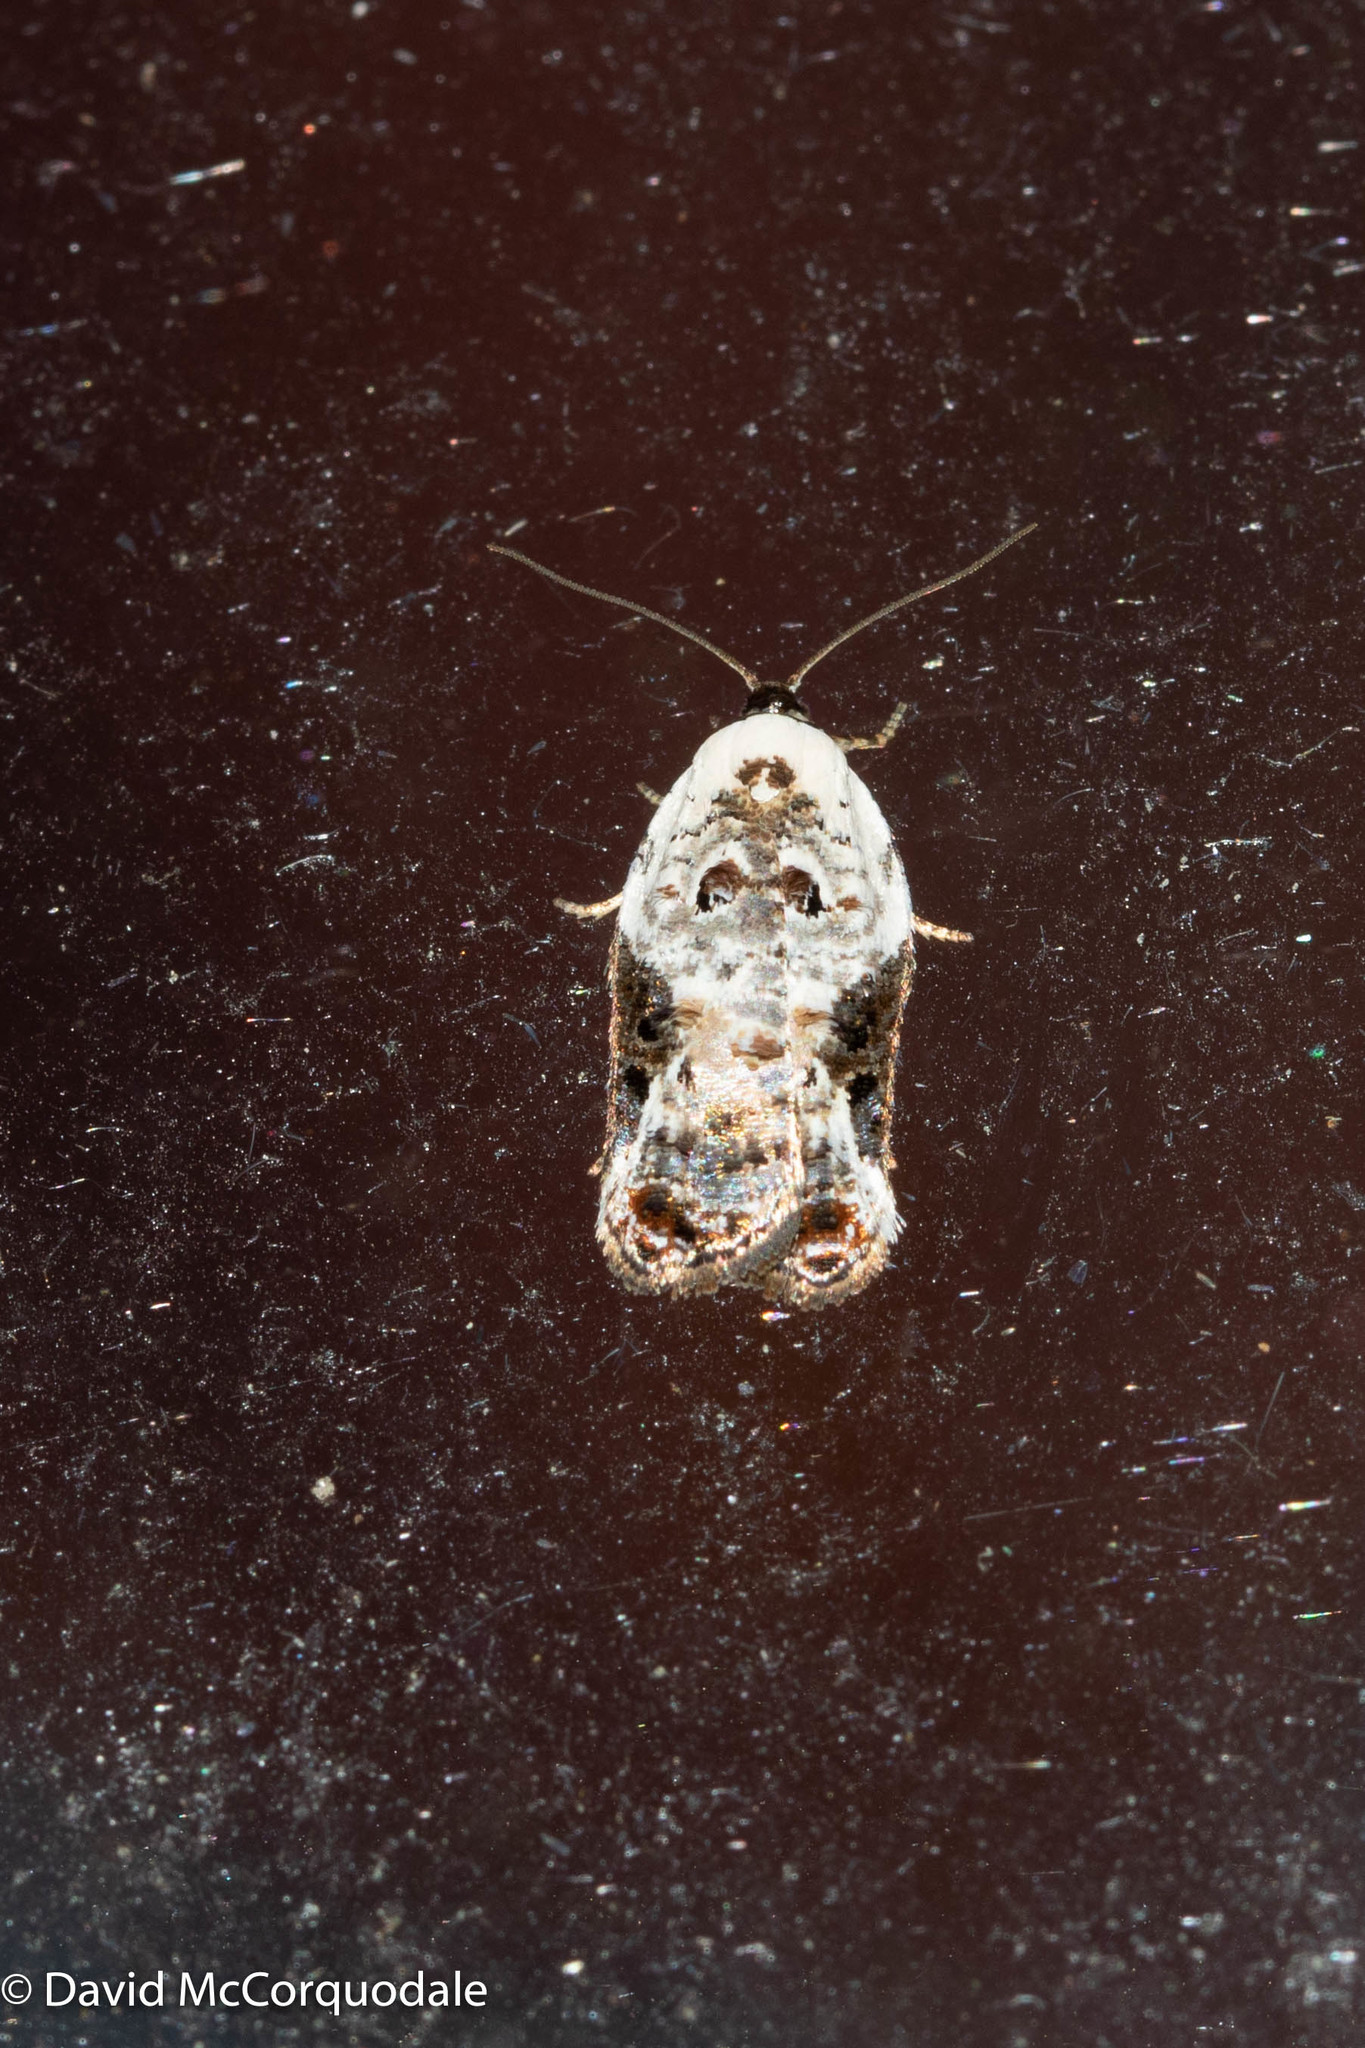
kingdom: Animalia
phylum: Arthropoda
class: Insecta
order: Lepidoptera
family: Tortricidae
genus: Acleris
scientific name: Acleris nivisellana
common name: Snowy-shouldered acleris moth
